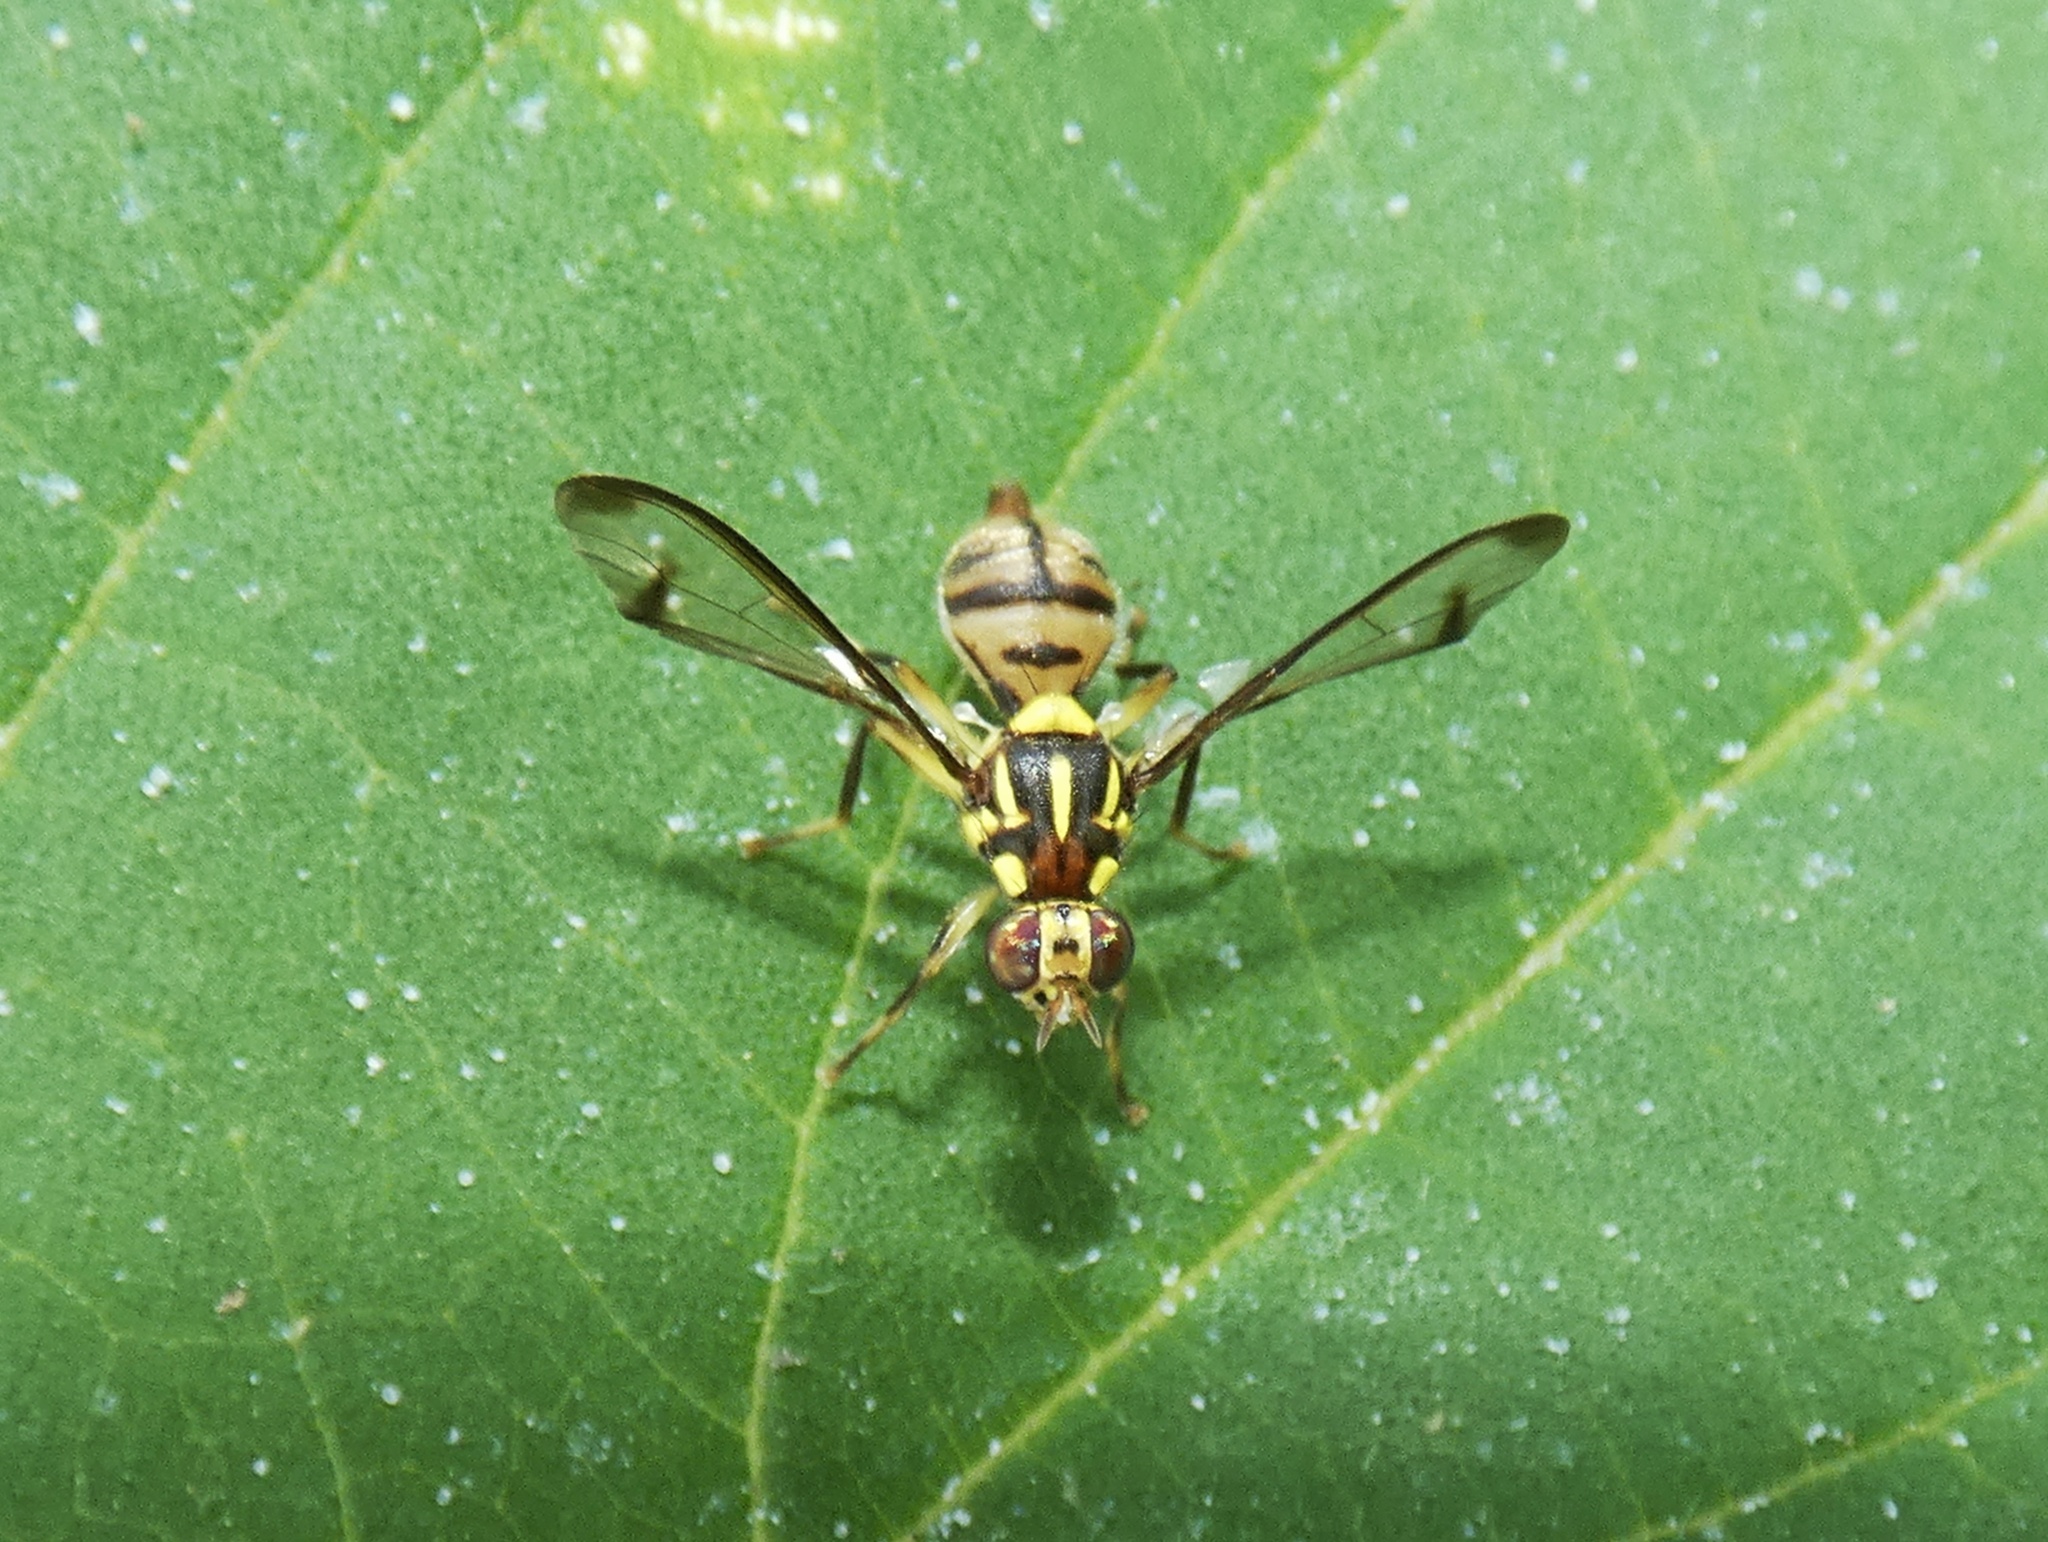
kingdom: Animalia
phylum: Arthropoda
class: Insecta
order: Diptera
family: Tephritidae
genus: Bactrocera
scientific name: Bactrocera tau
